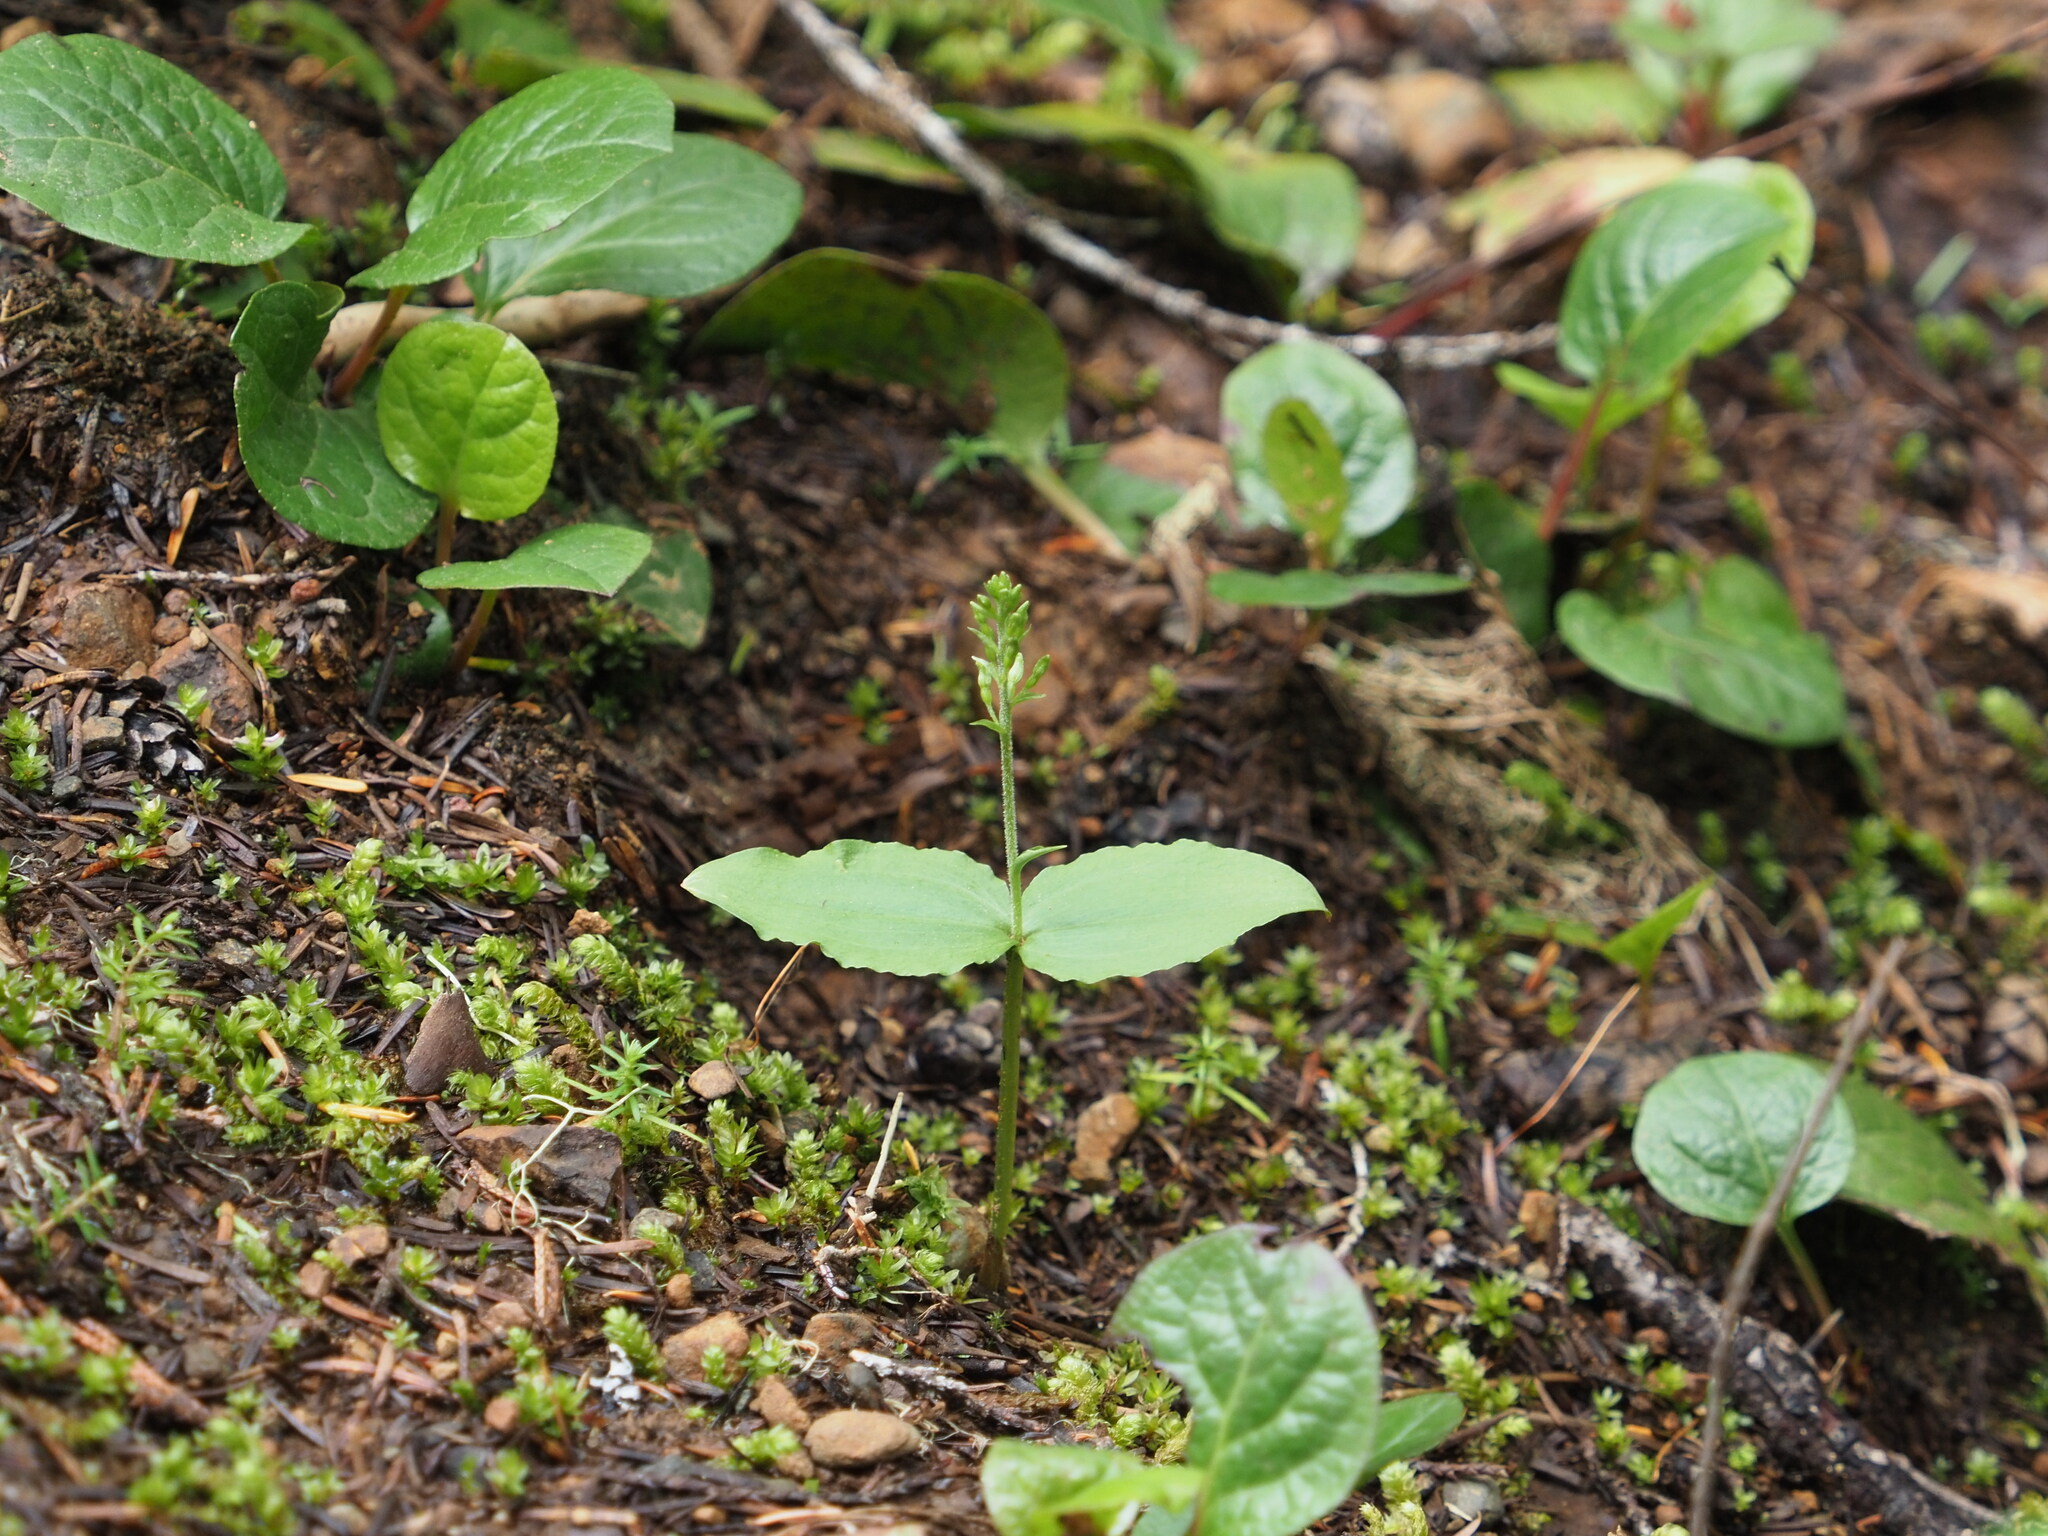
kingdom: Plantae
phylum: Tracheophyta
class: Liliopsida
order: Asparagales
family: Orchidaceae
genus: Neottia
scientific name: Neottia banksiana
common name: Northwestern twayblade
